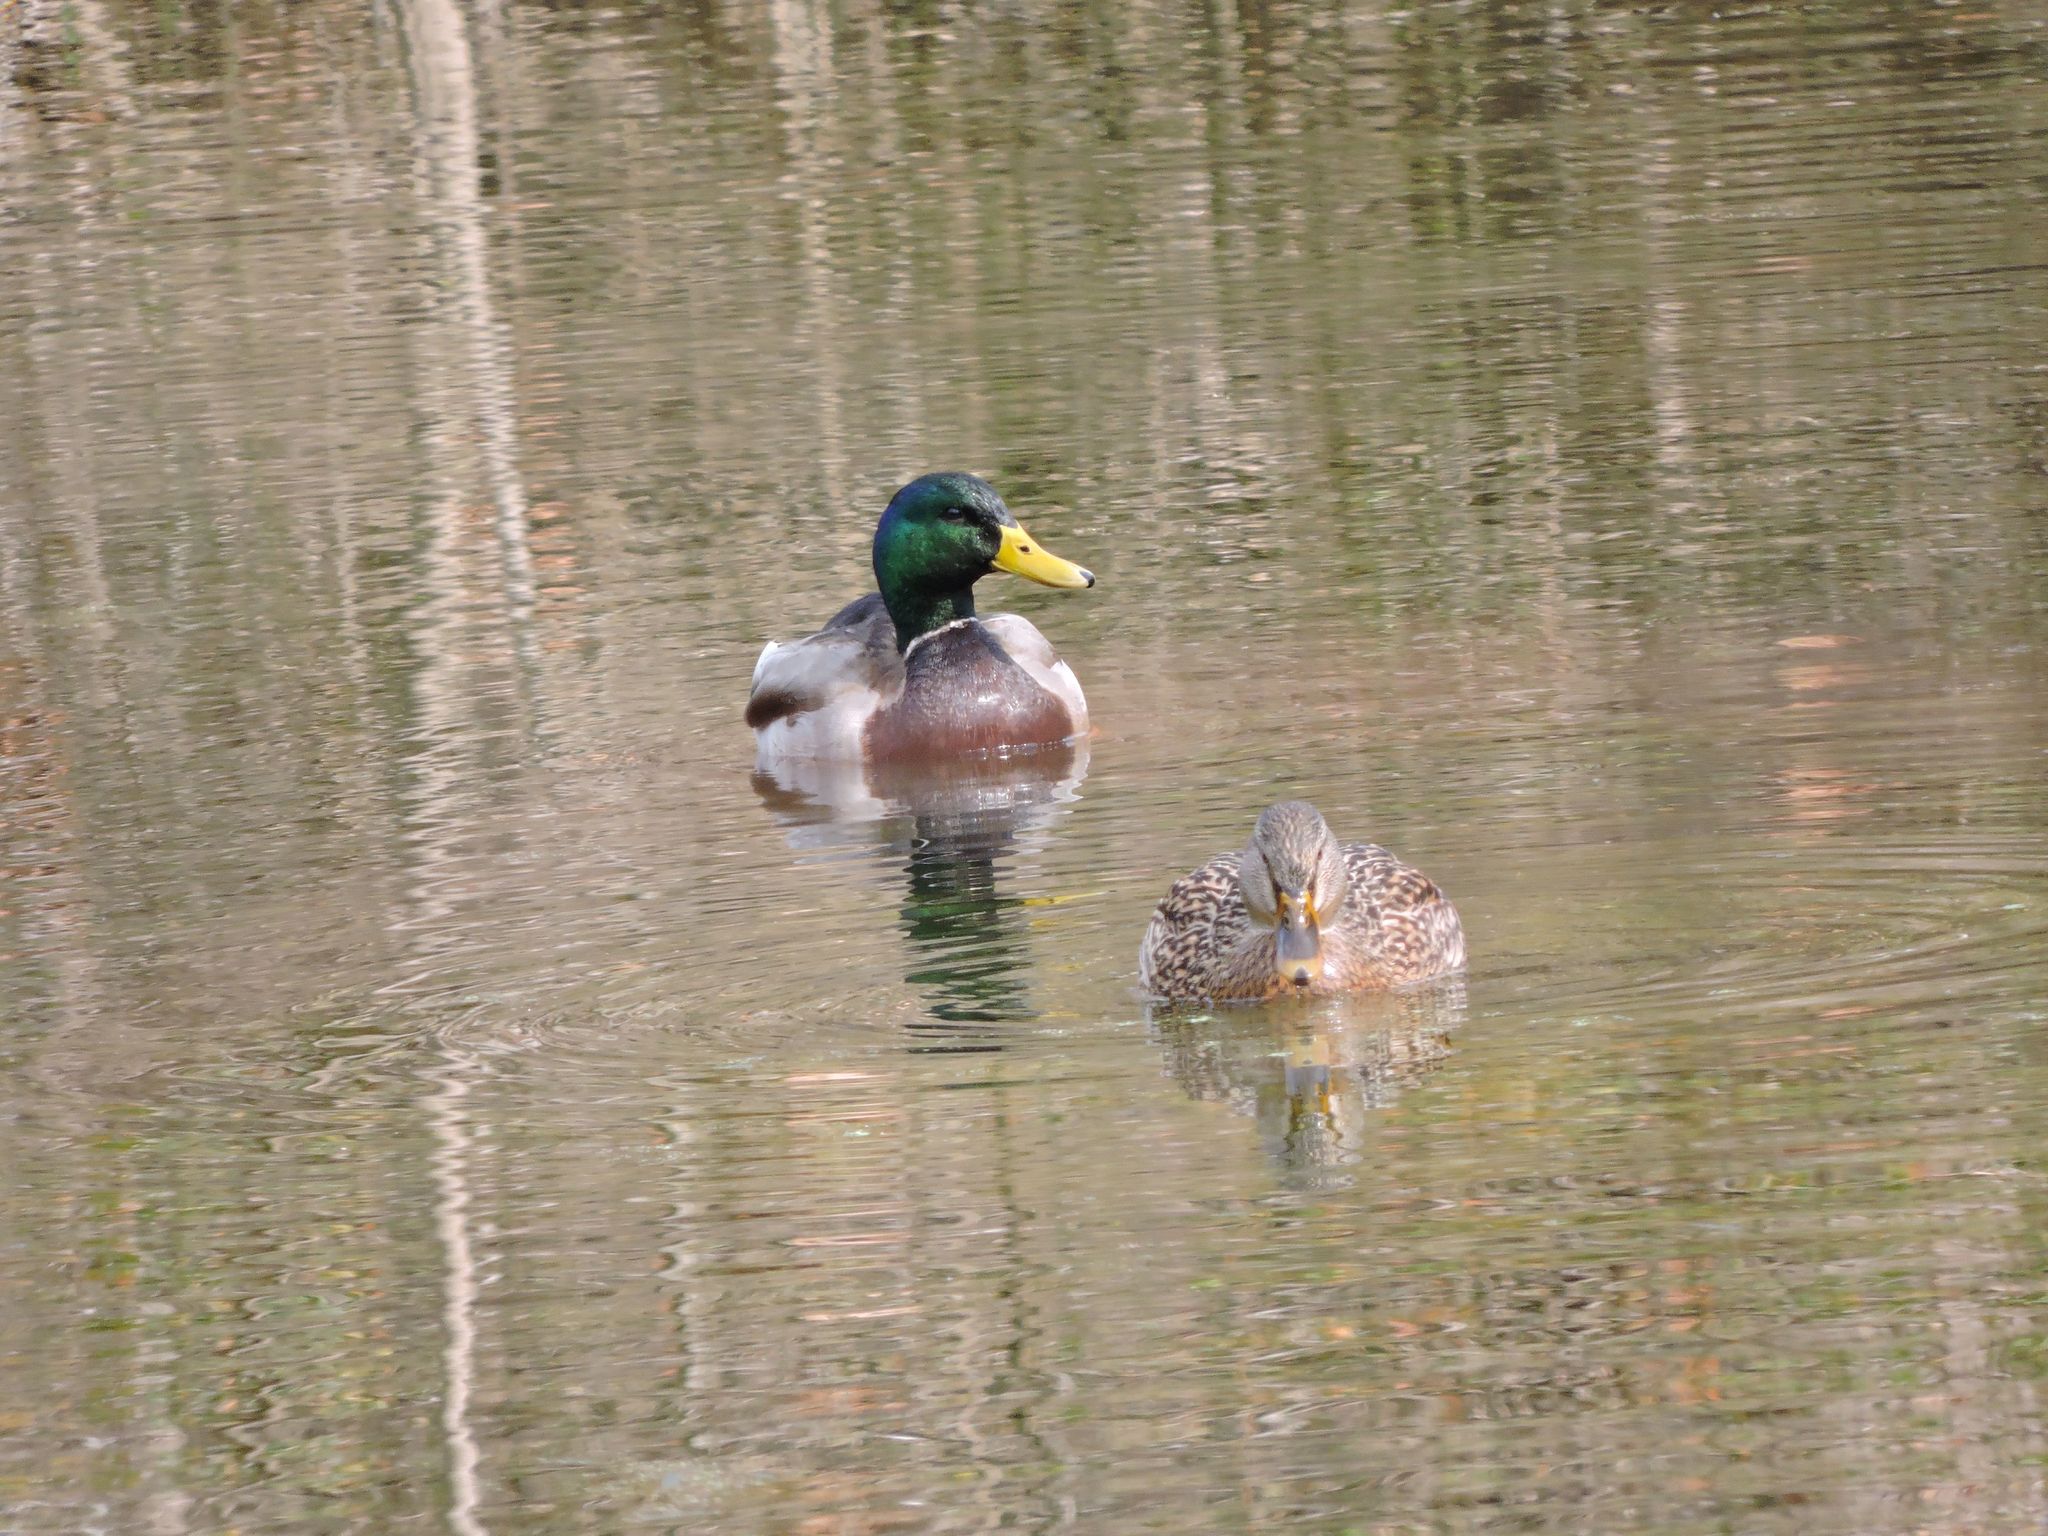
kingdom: Animalia
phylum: Chordata
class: Aves
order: Anseriformes
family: Anatidae
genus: Anas
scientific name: Anas platyrhynchos
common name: Mallard
